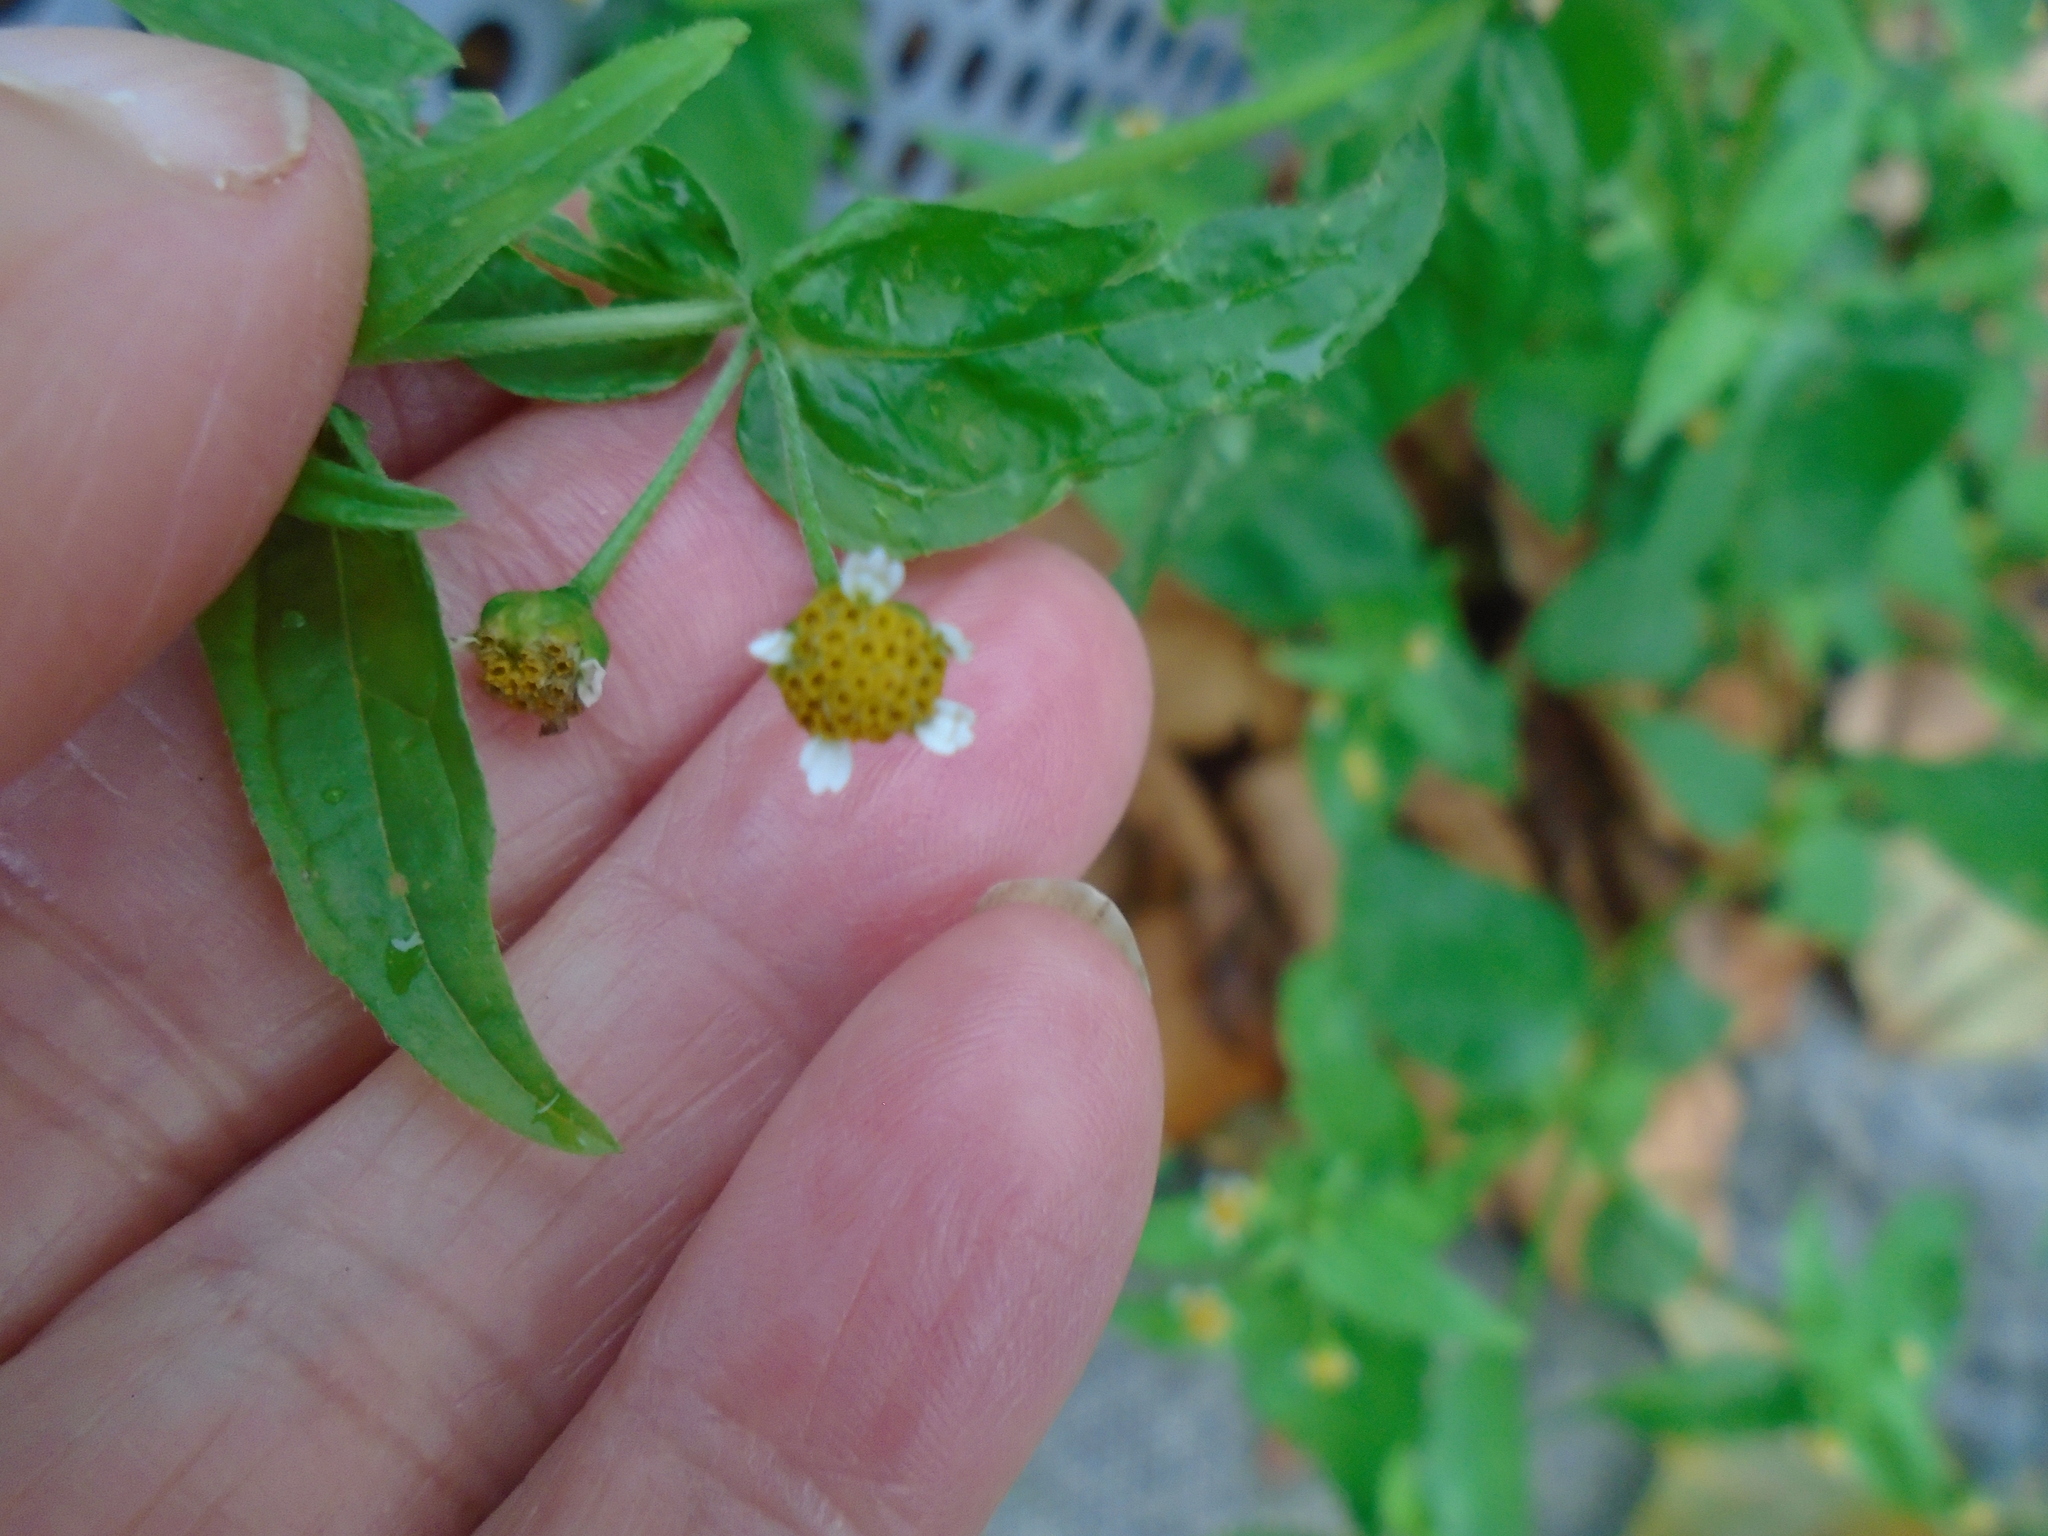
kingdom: Plantae
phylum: Tracheophyta
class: Magnoliopsida
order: Asterales
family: Asteraceae
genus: Galinsoga
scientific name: Galinsoga parviflora
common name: Gallant soldier
